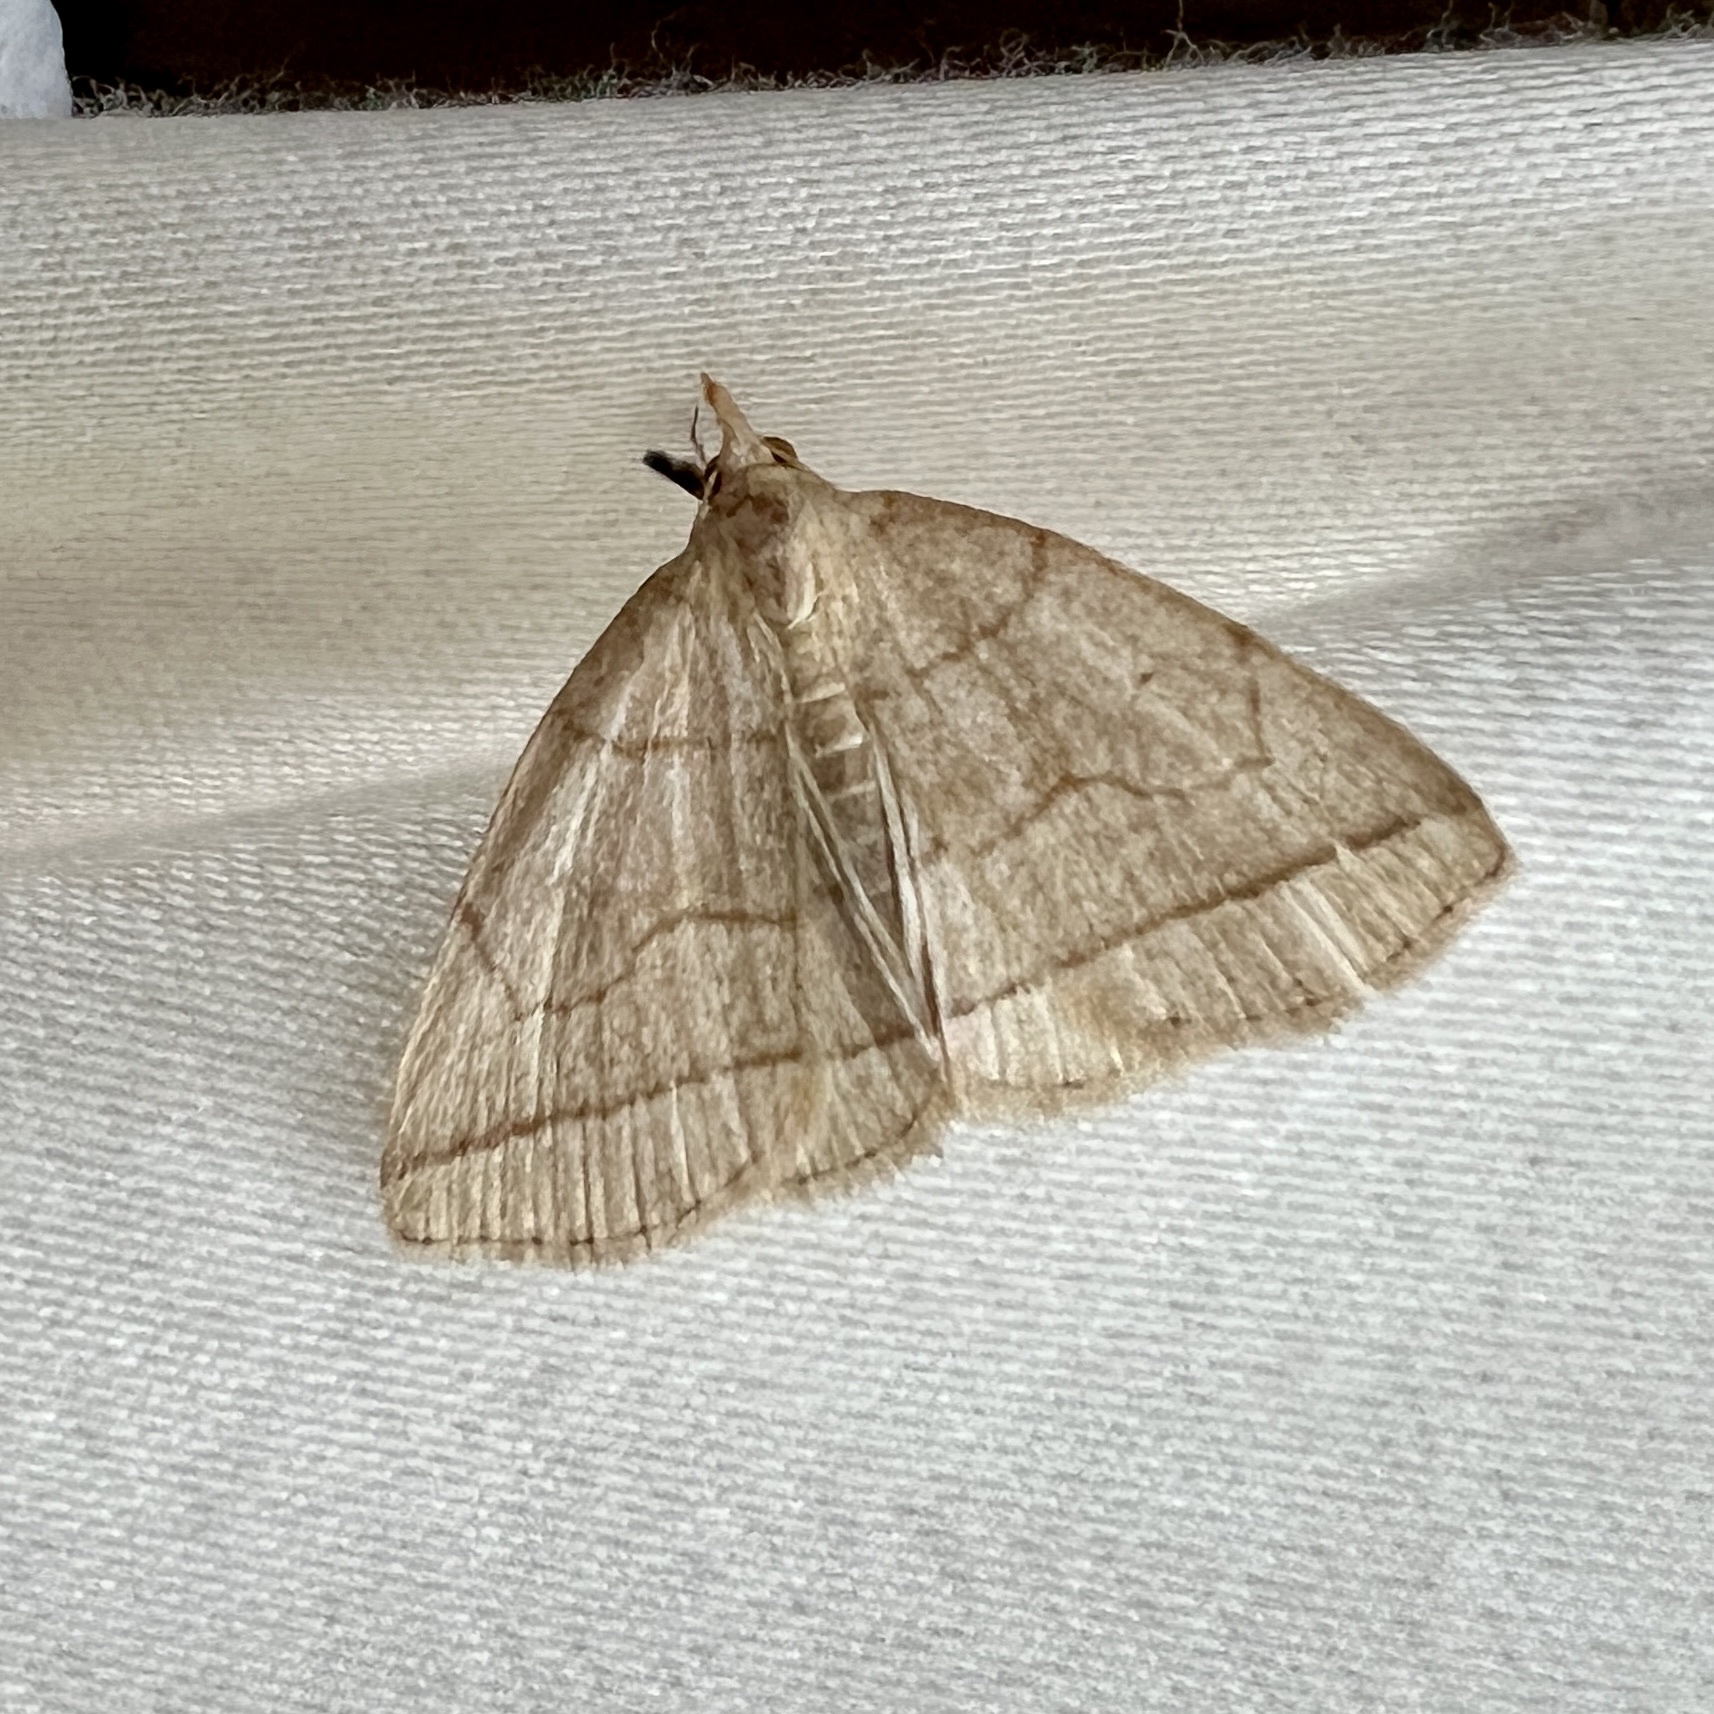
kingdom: Animalia
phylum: Arthropoda
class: Insecta
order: Lepidoptera
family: Erebidae
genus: Zanclognatha
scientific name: Zanclognatha cruralis
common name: Early fan-foot
